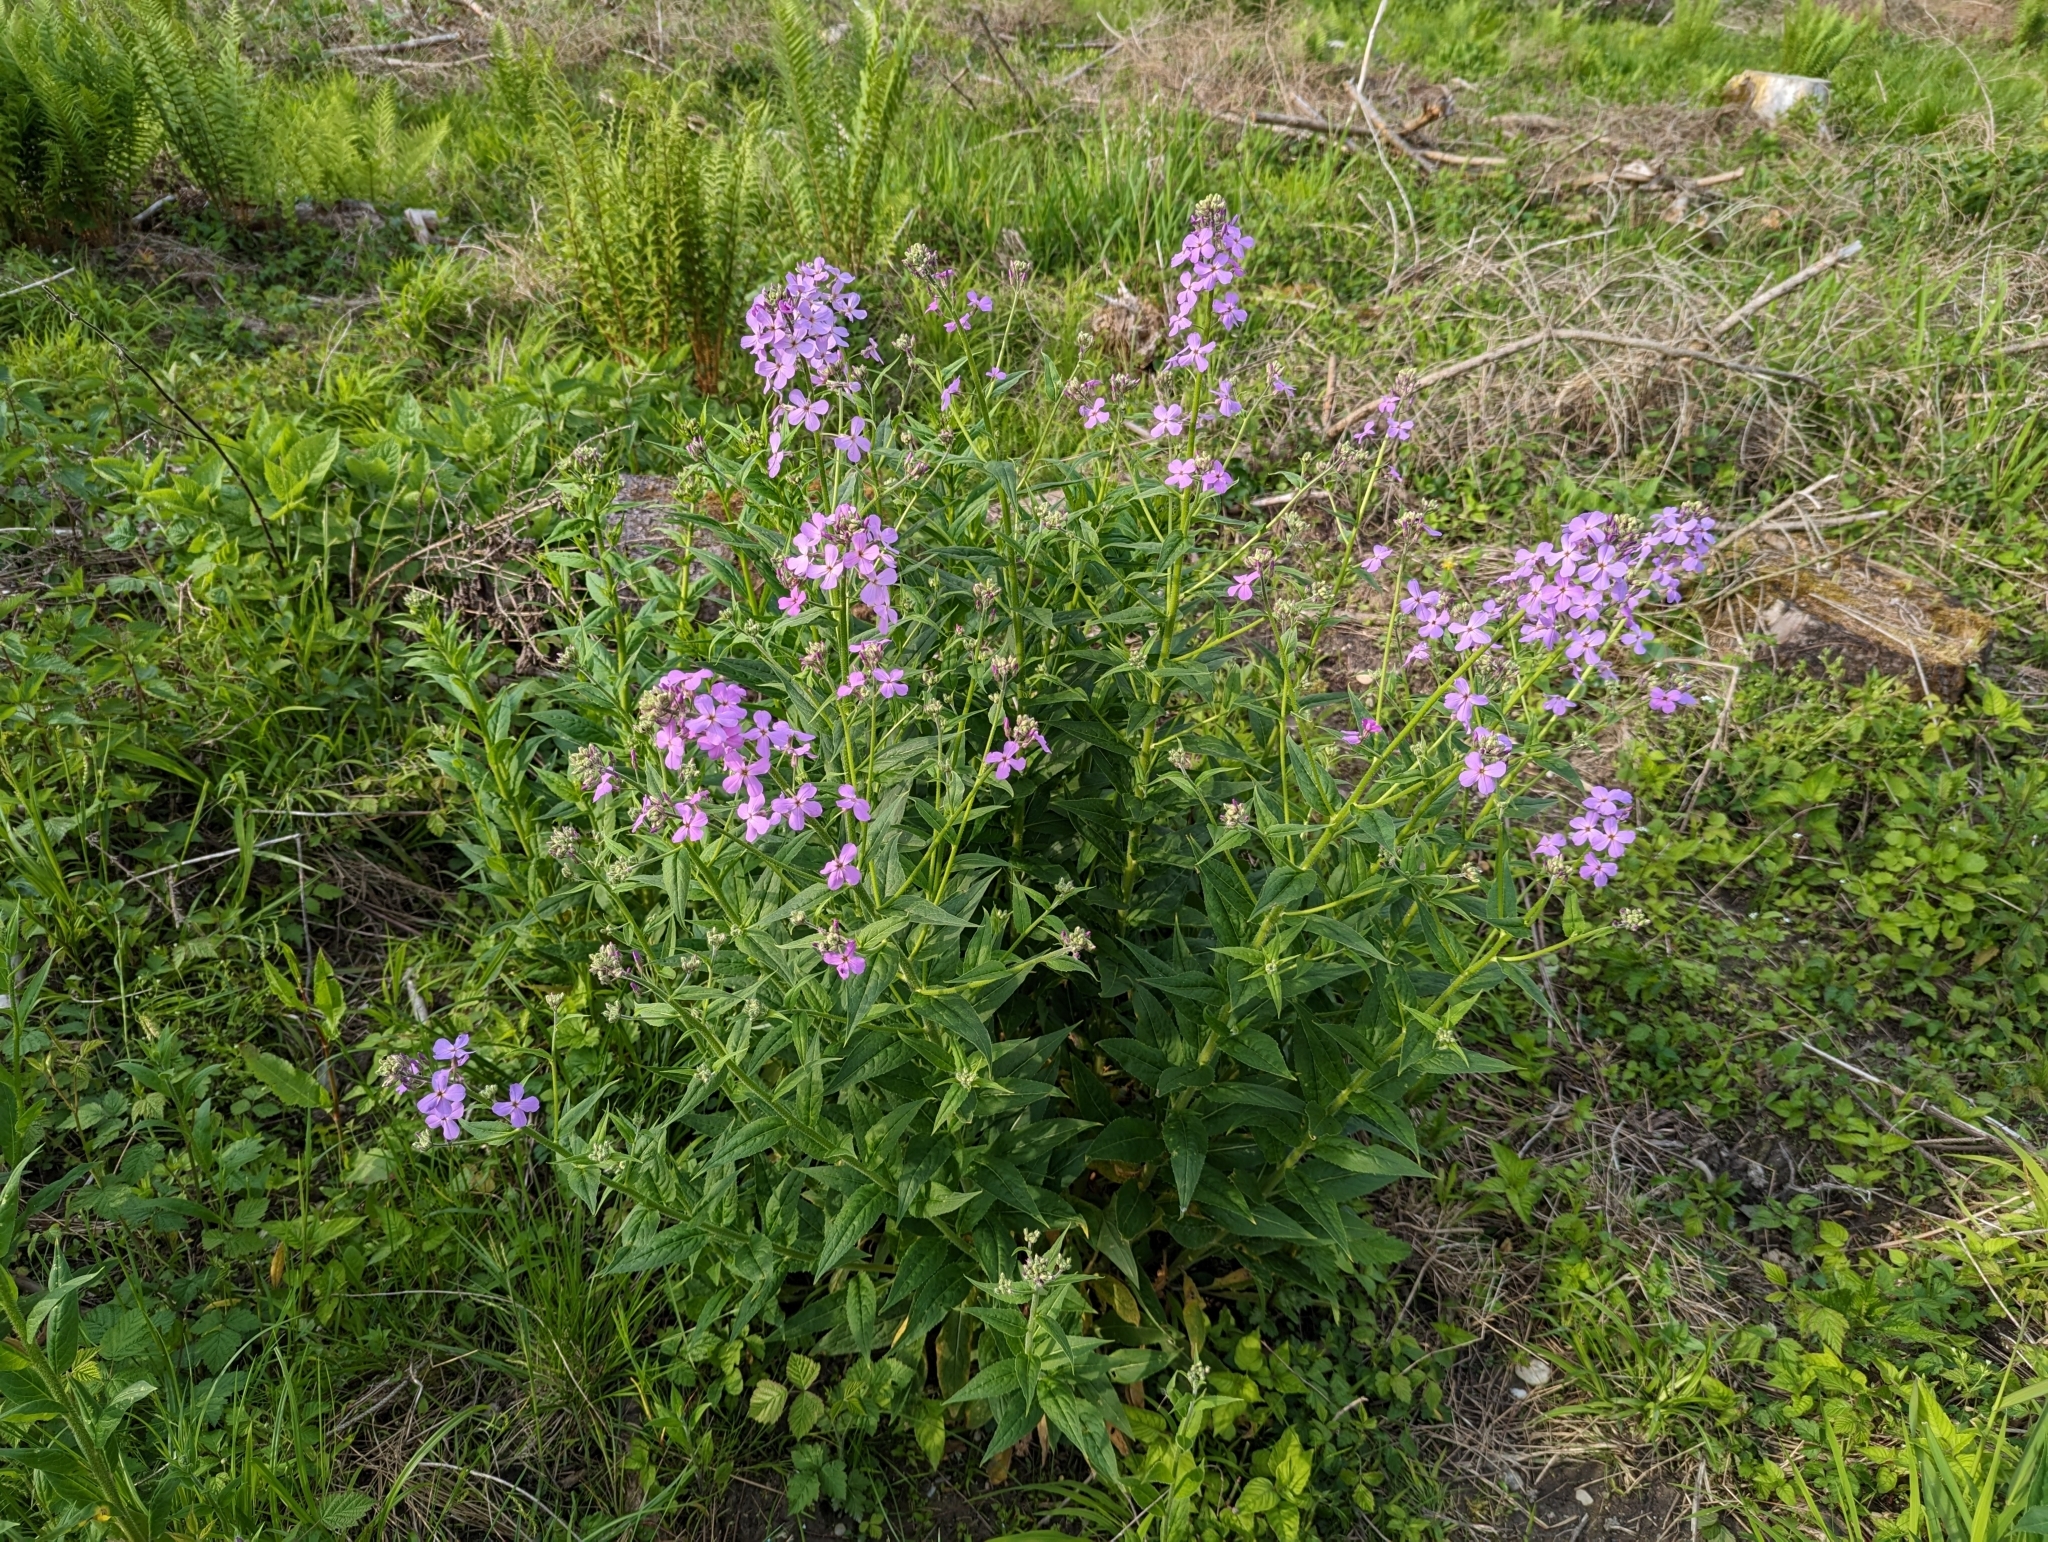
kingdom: Plantae
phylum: Tracheophyta
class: Magnoliopsida
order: Brassicales
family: Brassicaceae
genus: Hesperis
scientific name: Hesperis matronalis
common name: Dame's-violet
